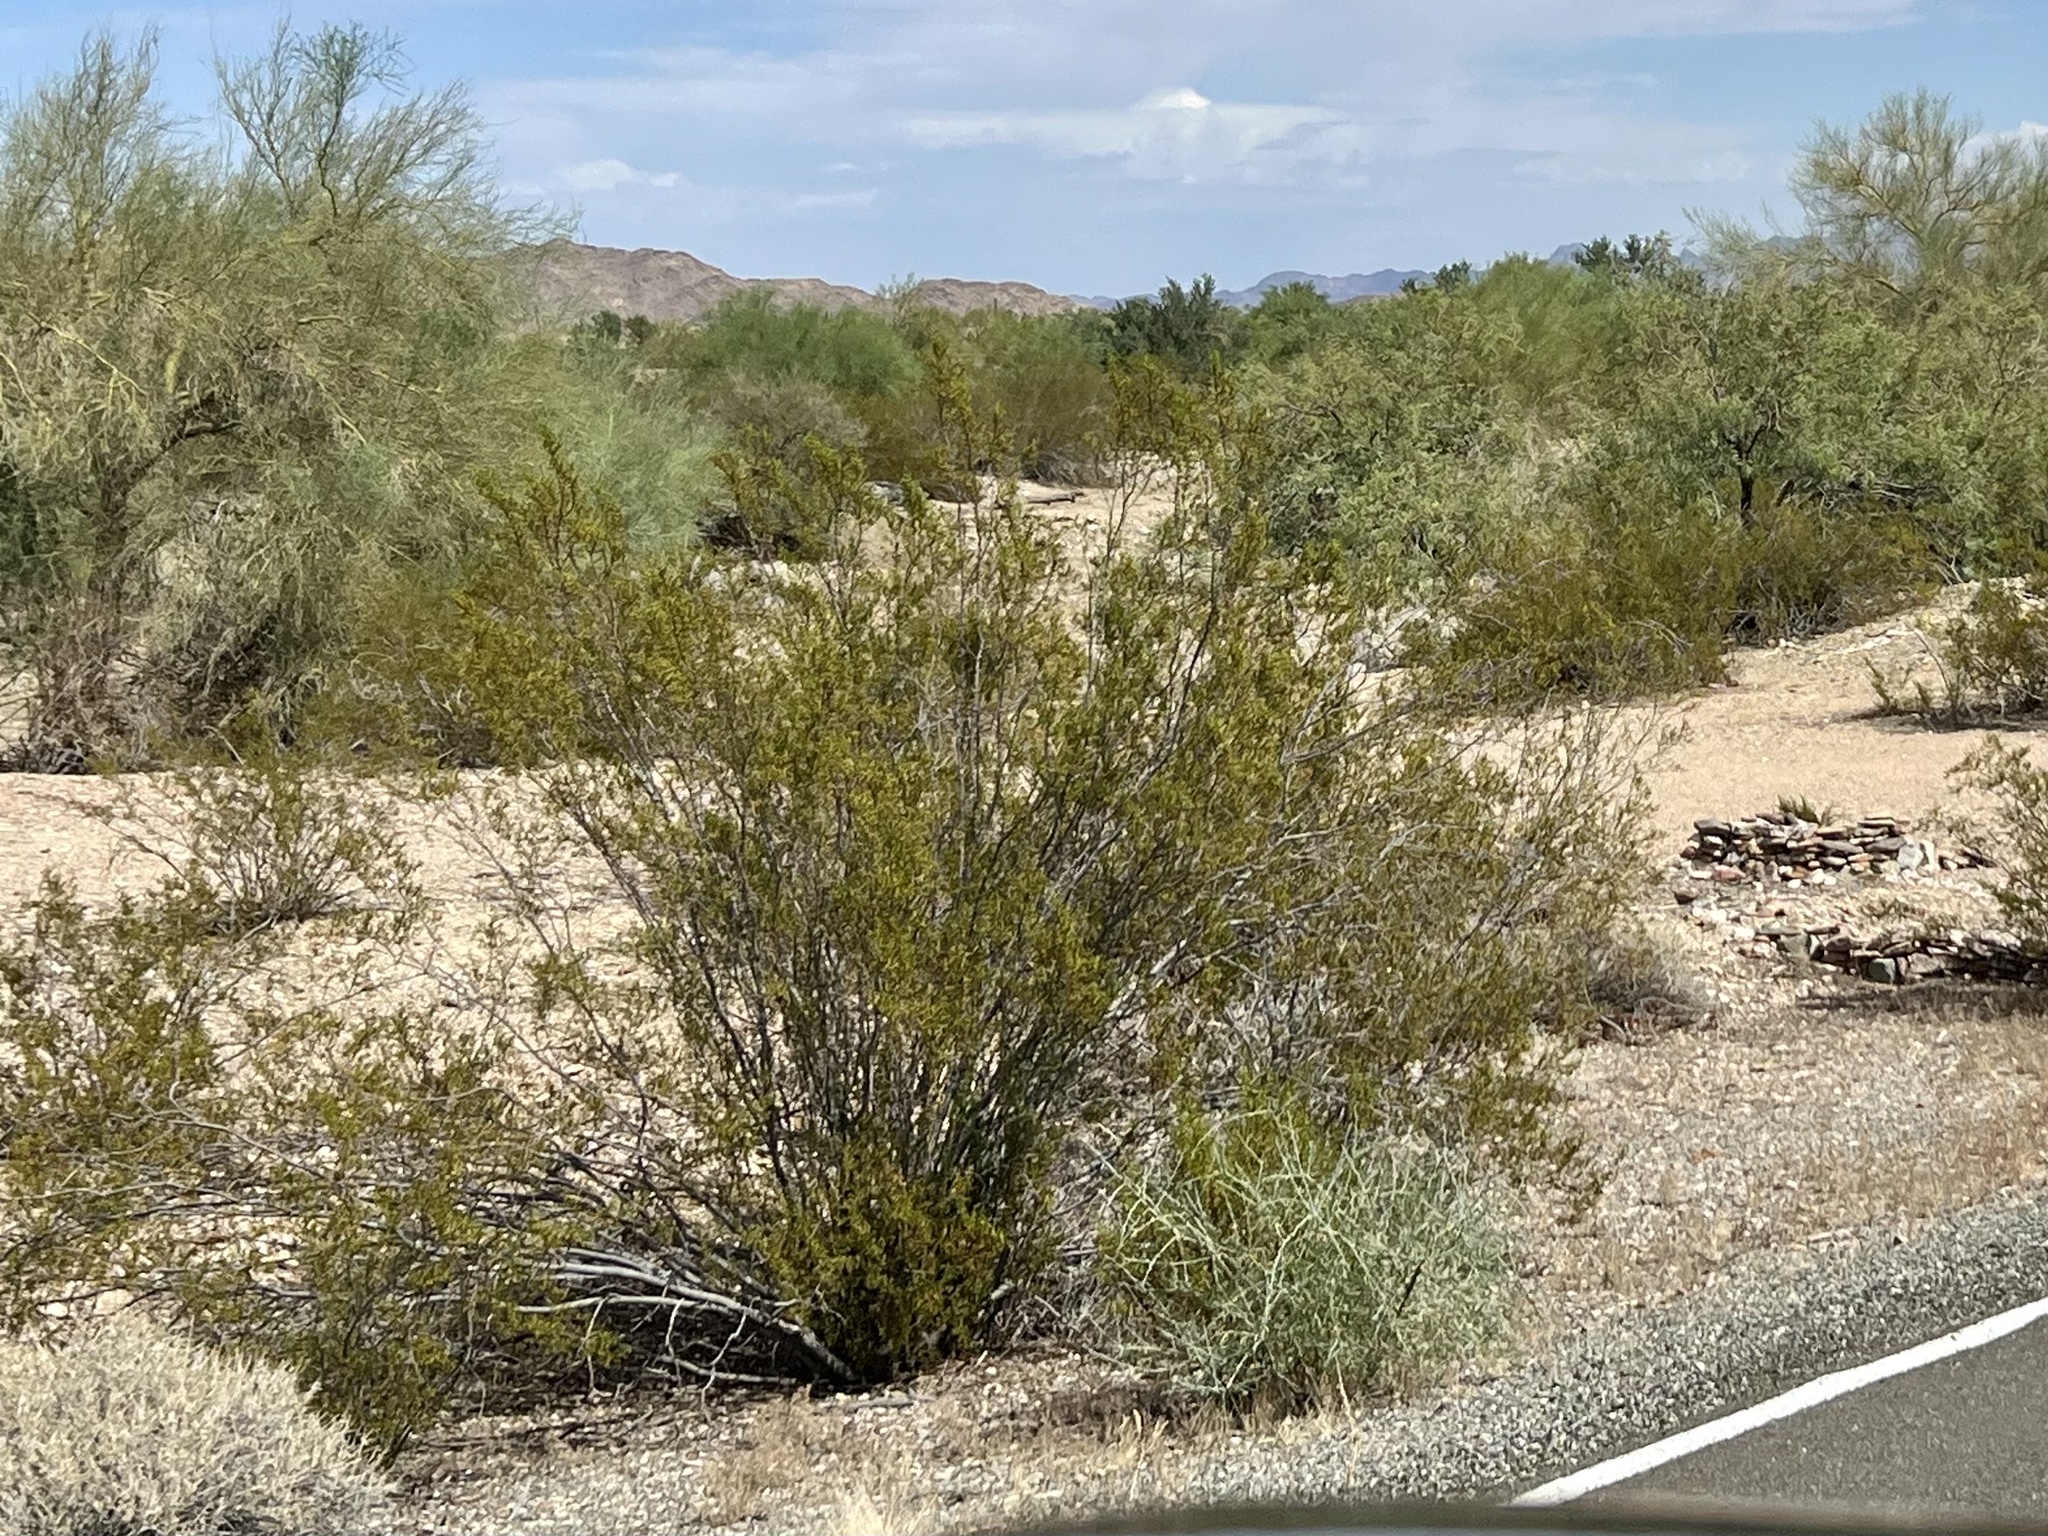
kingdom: Plantae
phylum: Tracheophyta
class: Magnoliopsida
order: Zygophyllales
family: Zygophyllaceae
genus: Larrea
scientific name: Larrea tridentata
